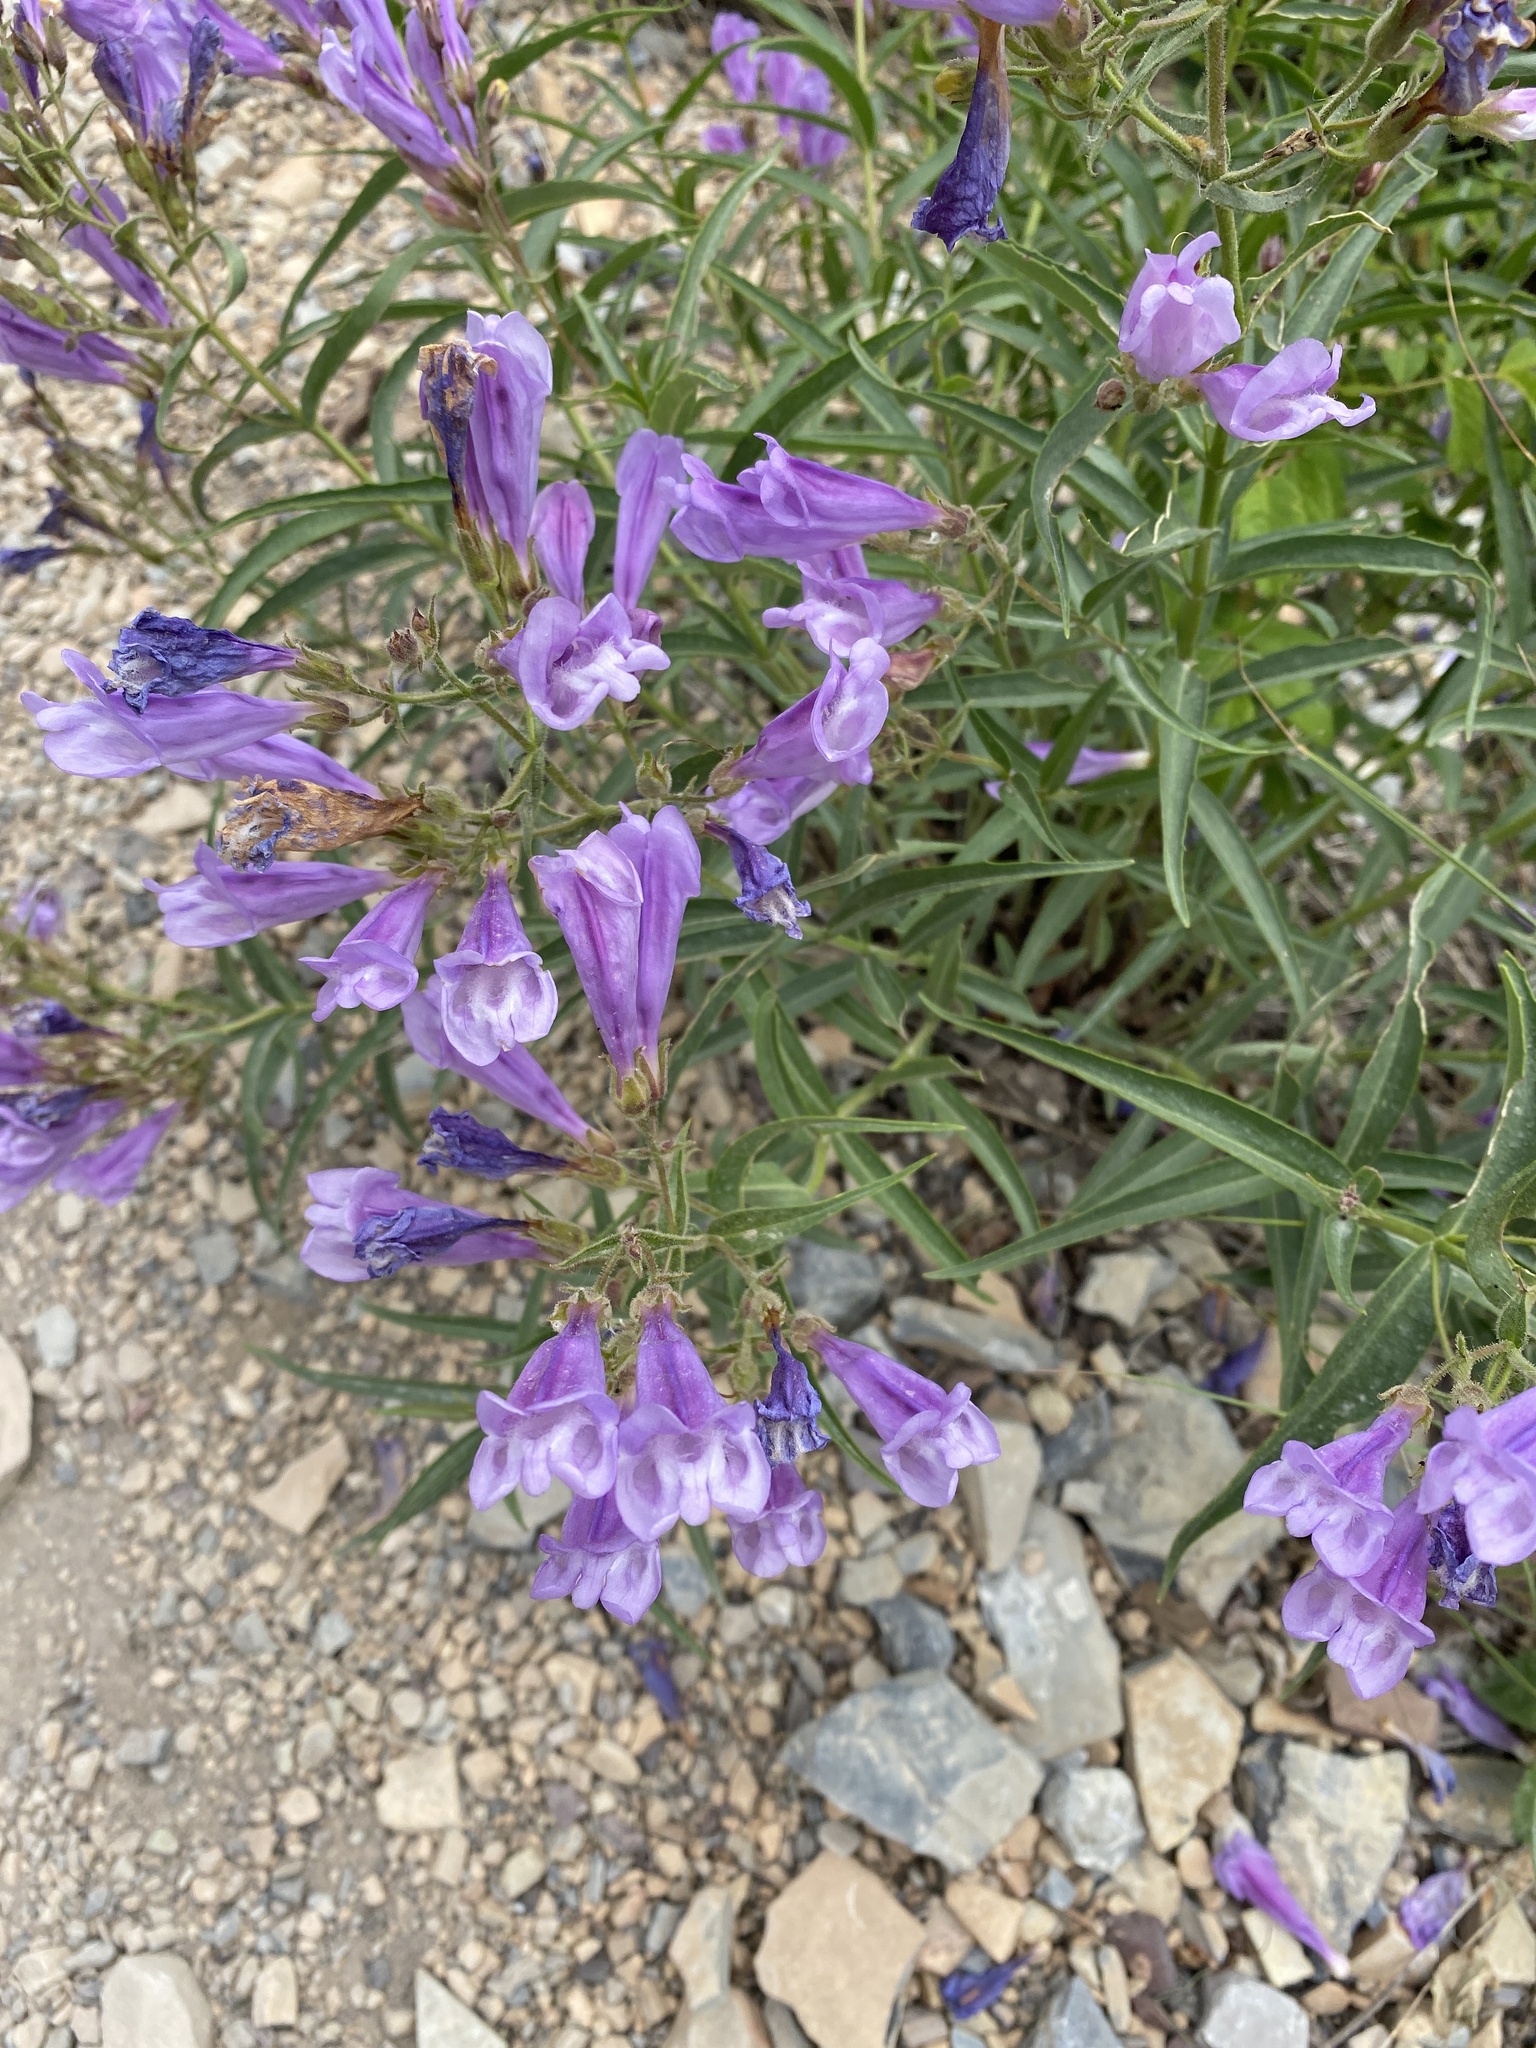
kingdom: Plantae
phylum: Tracheophyta
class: Magnoliopsida
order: Lamiales
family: Plantaginaceae
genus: Penstemon
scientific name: Penstemon lyalli
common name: Lyall's beardtongue
